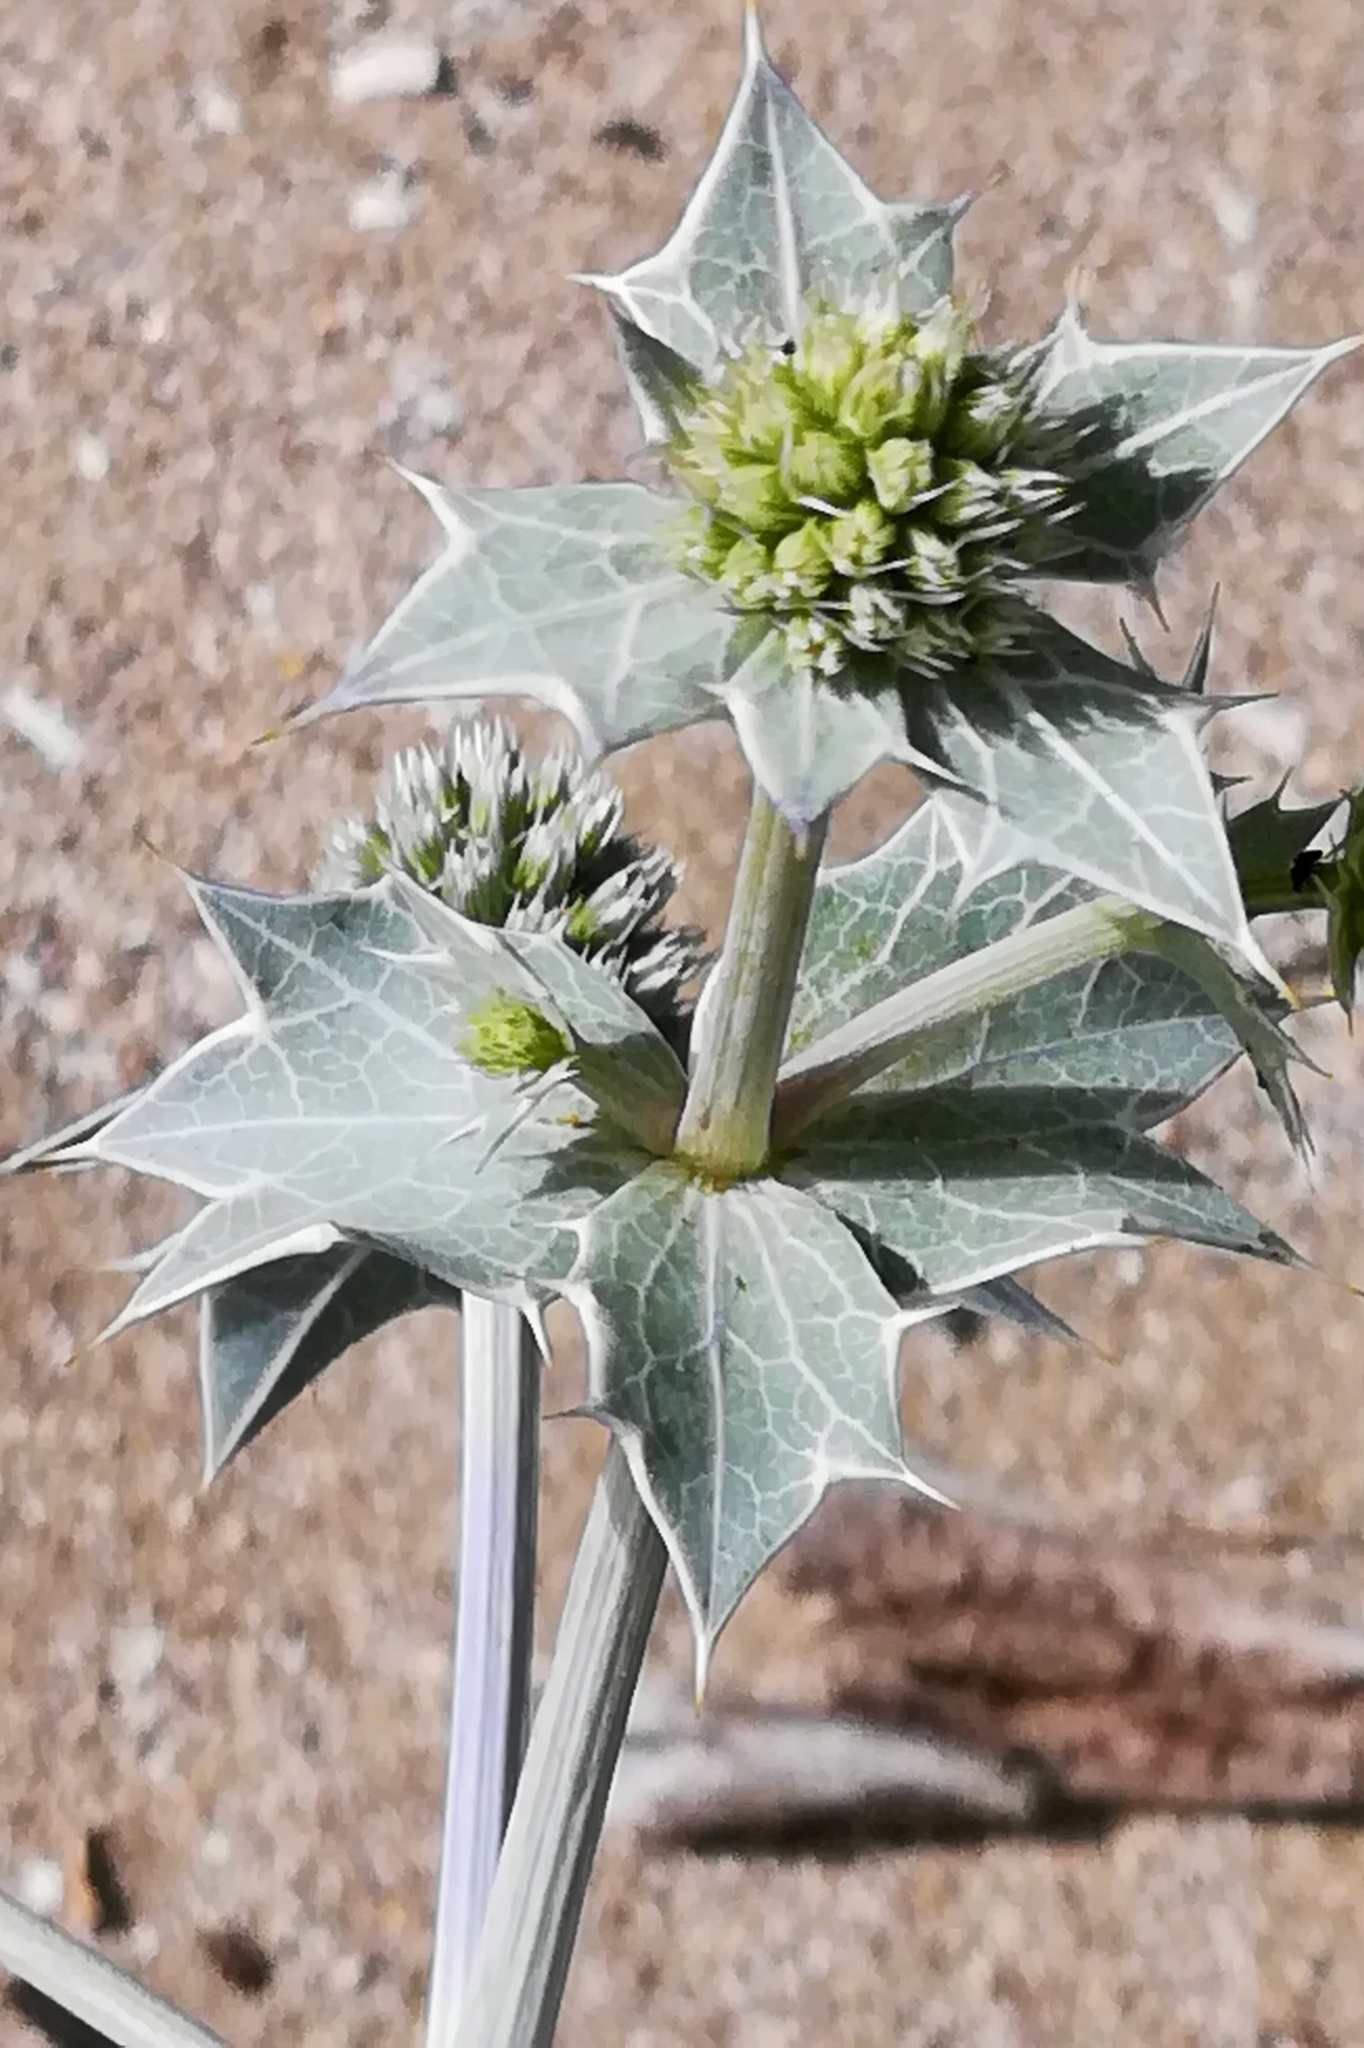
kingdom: Plantae
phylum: Tracheophyta
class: Magnoliopsida
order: Apiales
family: Apiaceae
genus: Eryngium
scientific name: Eryngium maritimum
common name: Sea-holly
